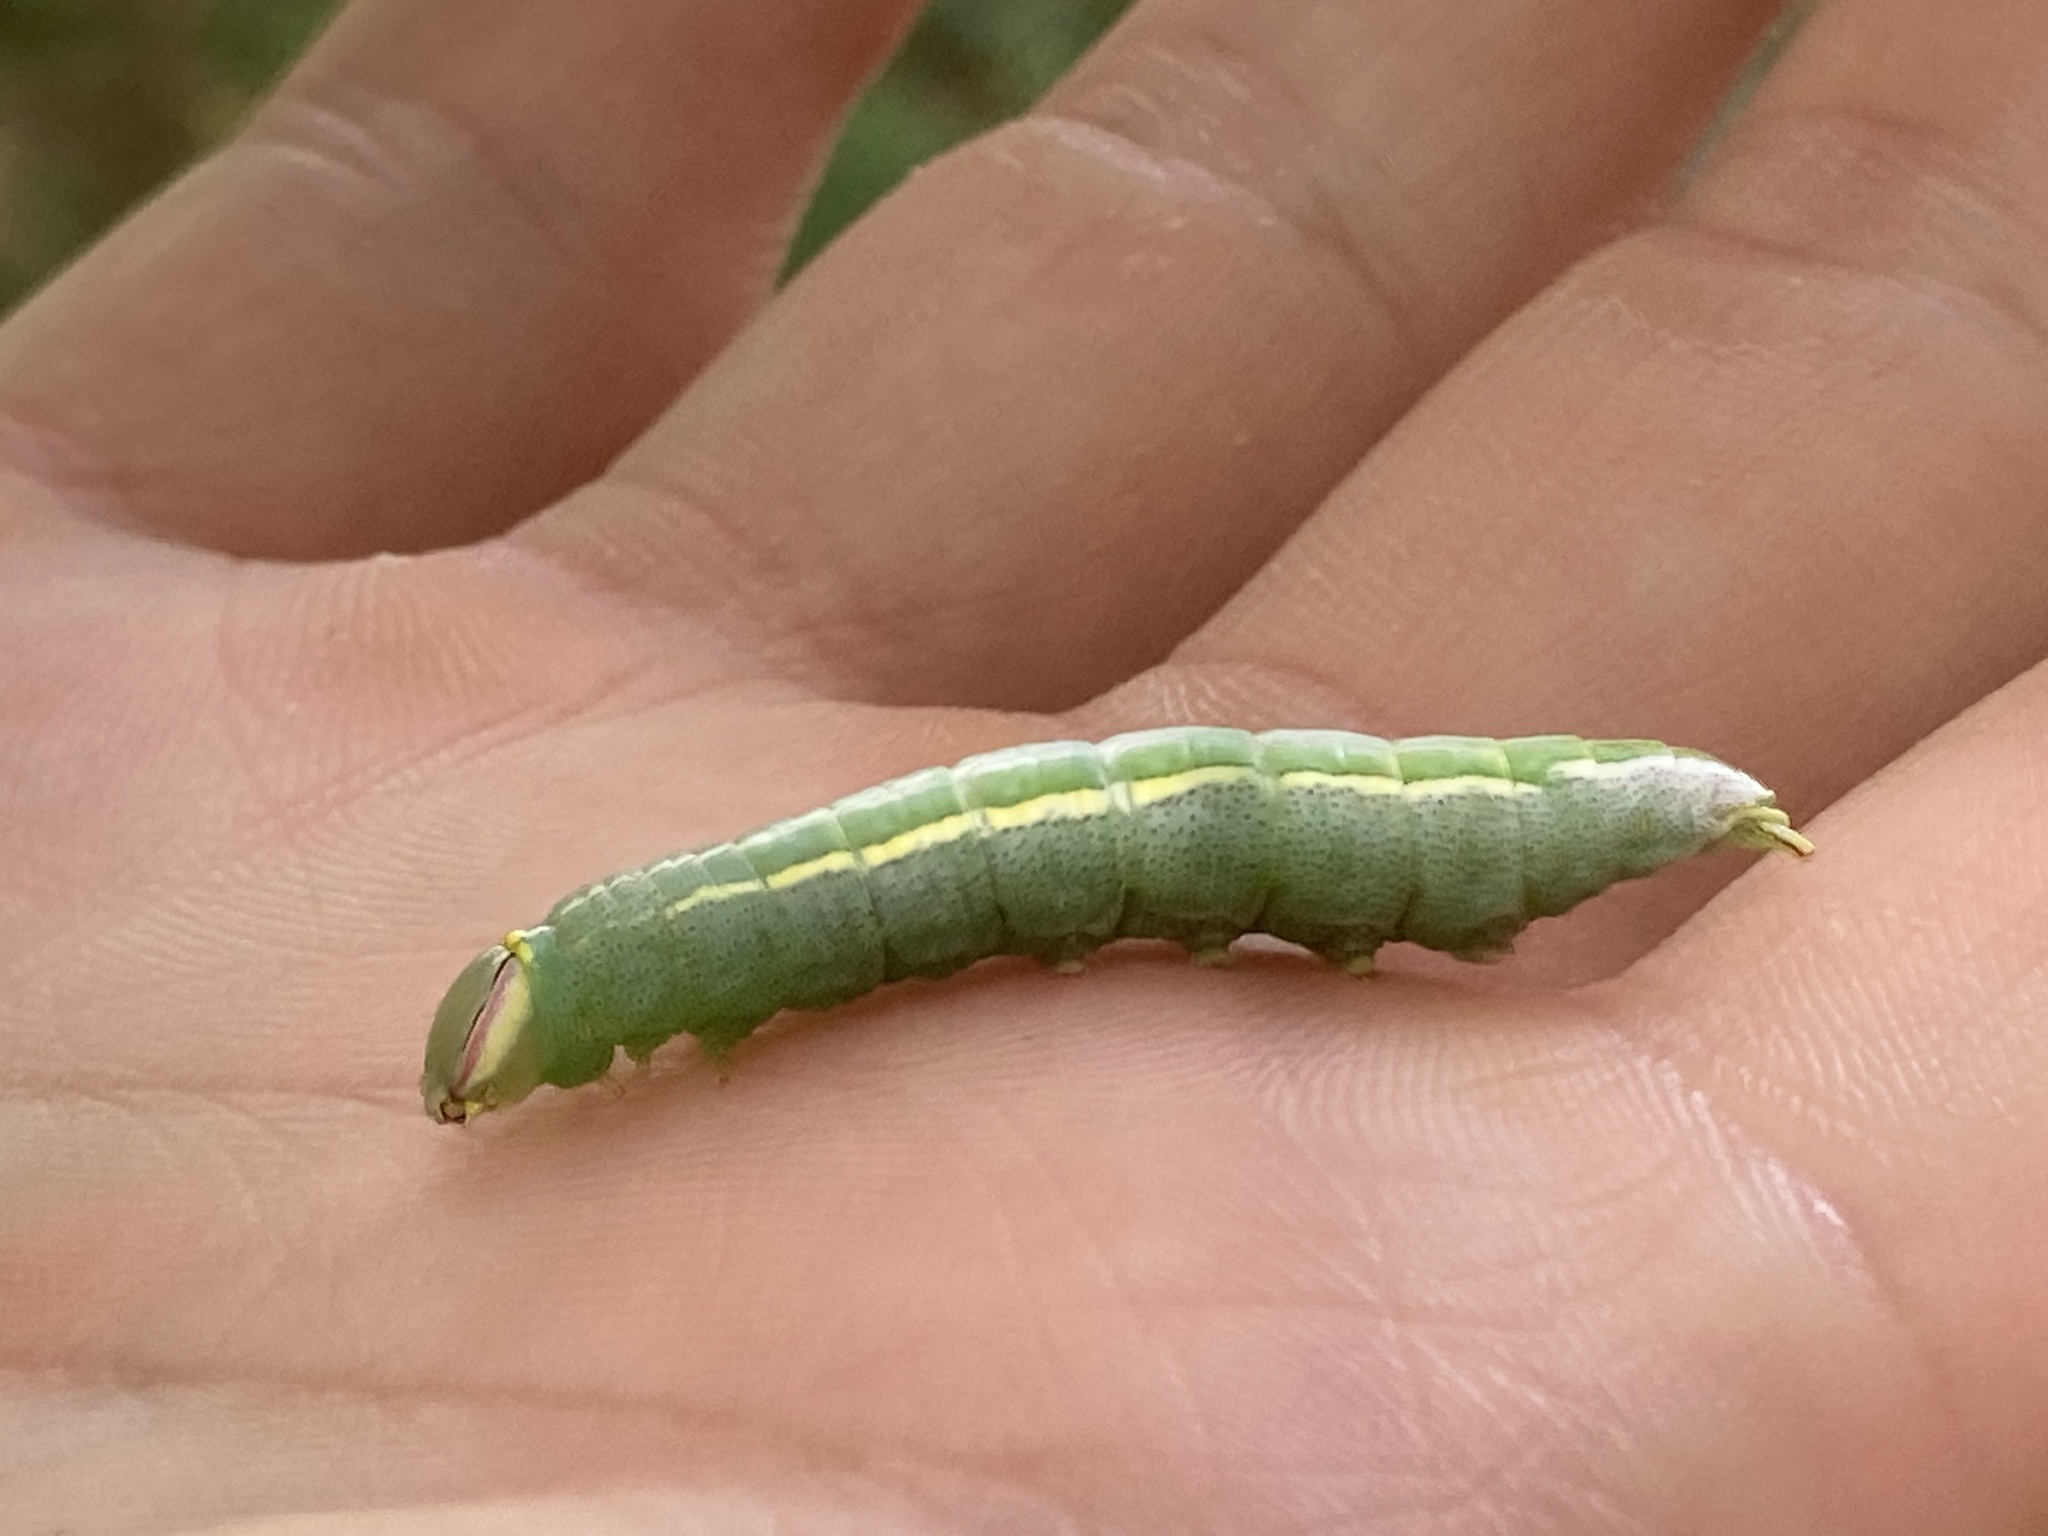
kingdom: Animalia
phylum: Arthropoda
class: Insecta
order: Lepidoptera
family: Notodontidae
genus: Disphragis
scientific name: Disphragis Cecrita guttivitta
